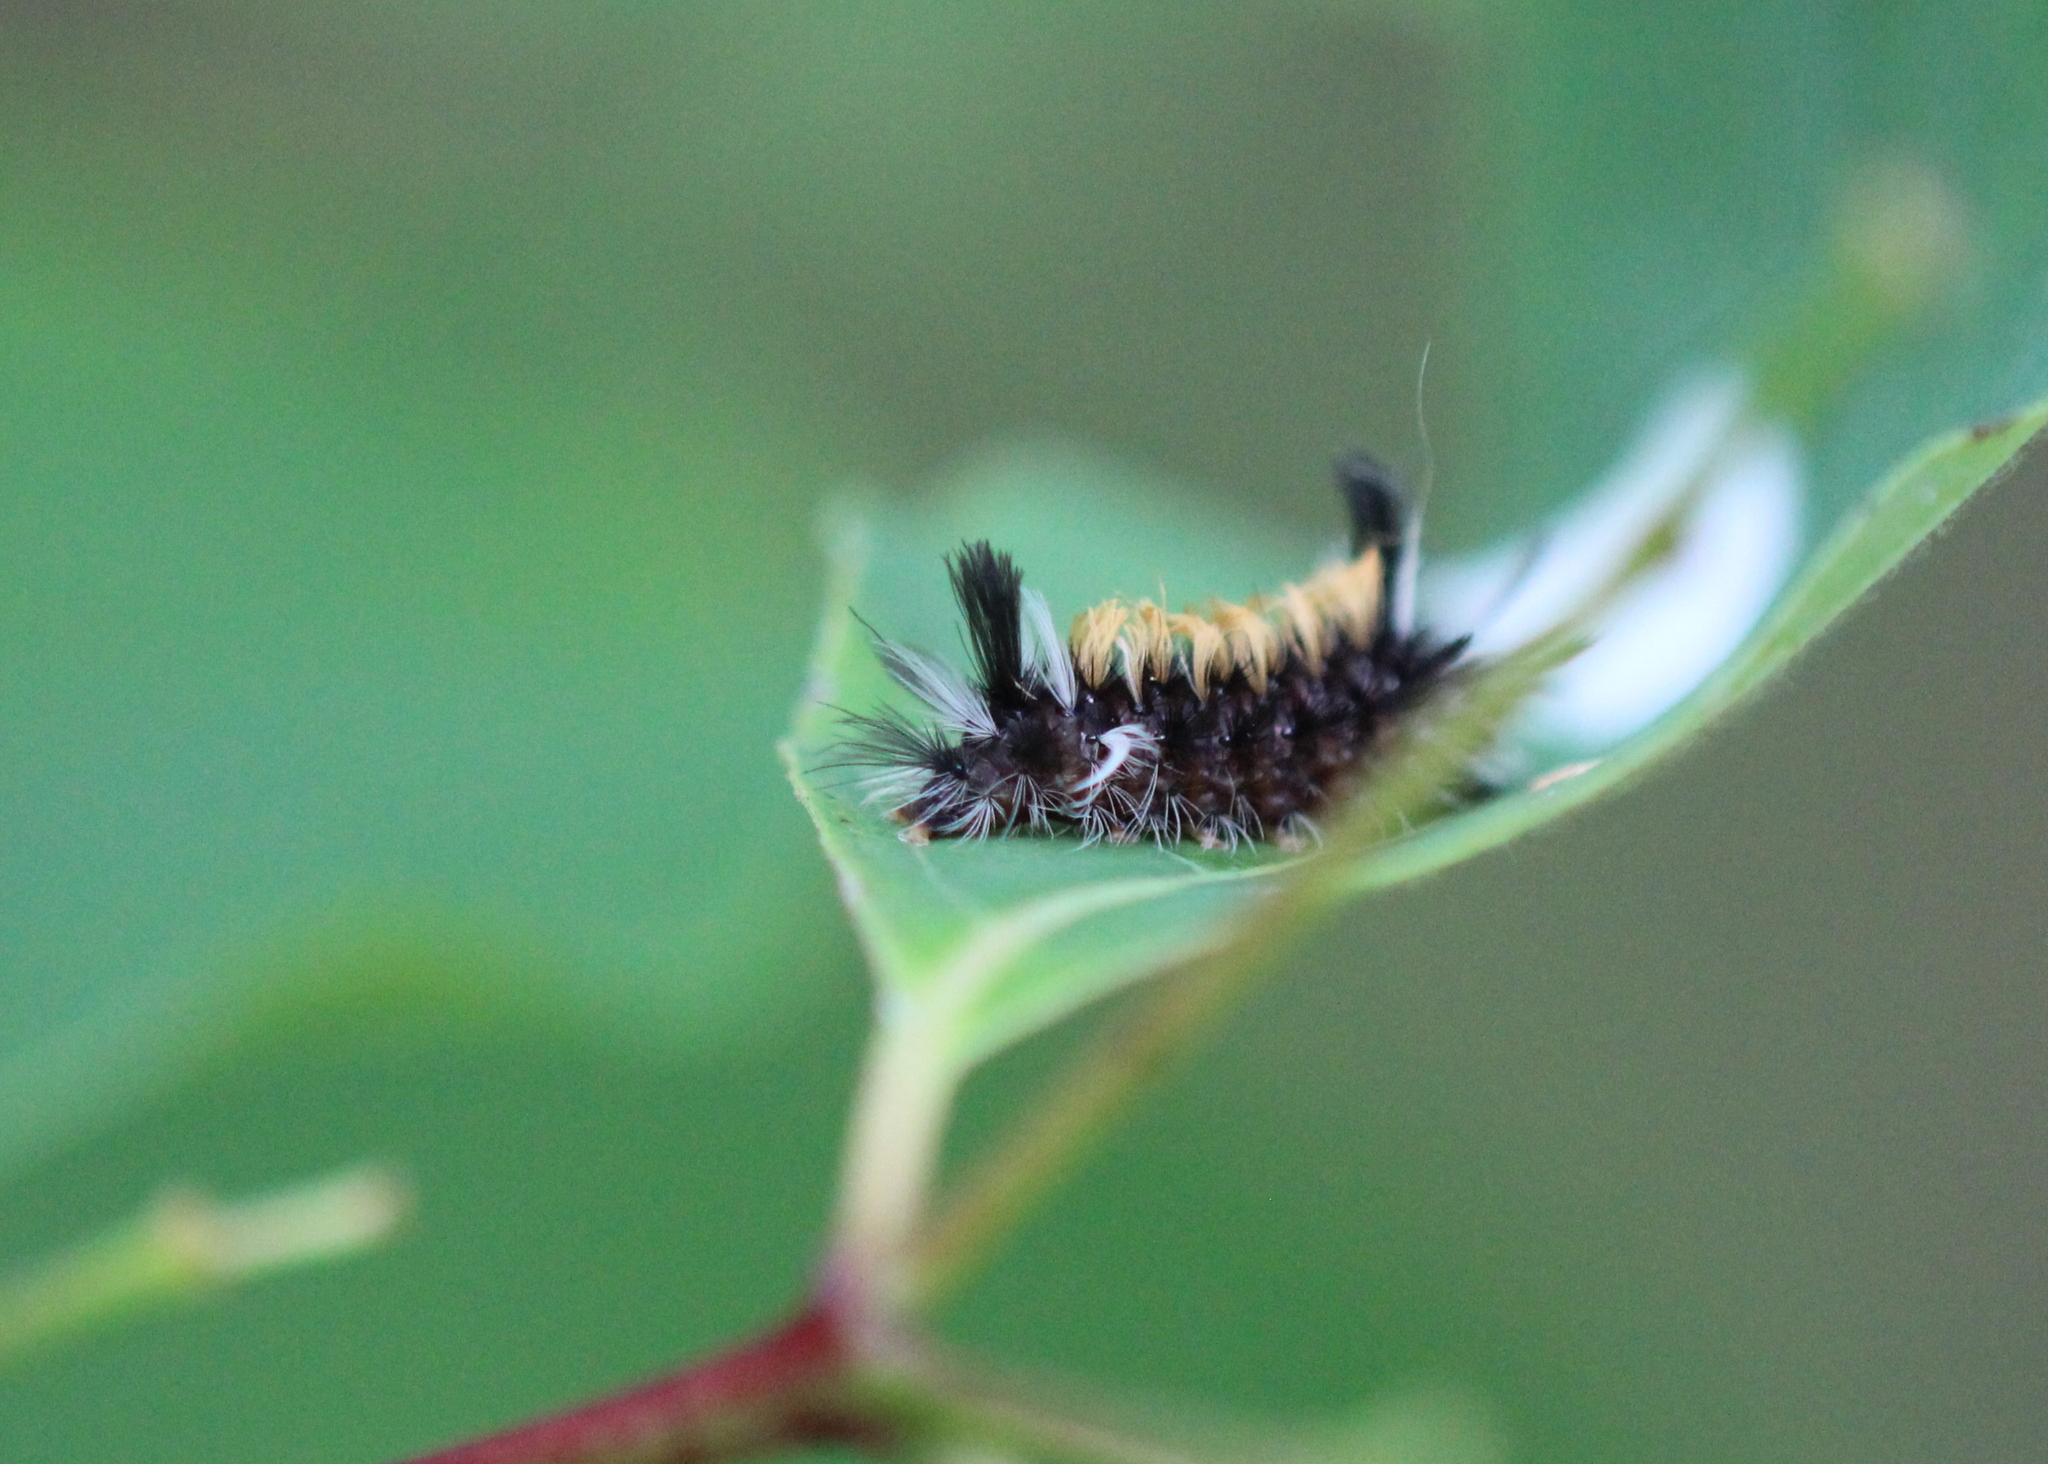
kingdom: Animalia
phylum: Arthropoda
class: Insecta
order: Lepidoptera
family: Erebidae
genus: Euchaetes
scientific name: Euchaetes egle
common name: Milkweed tussock moth
